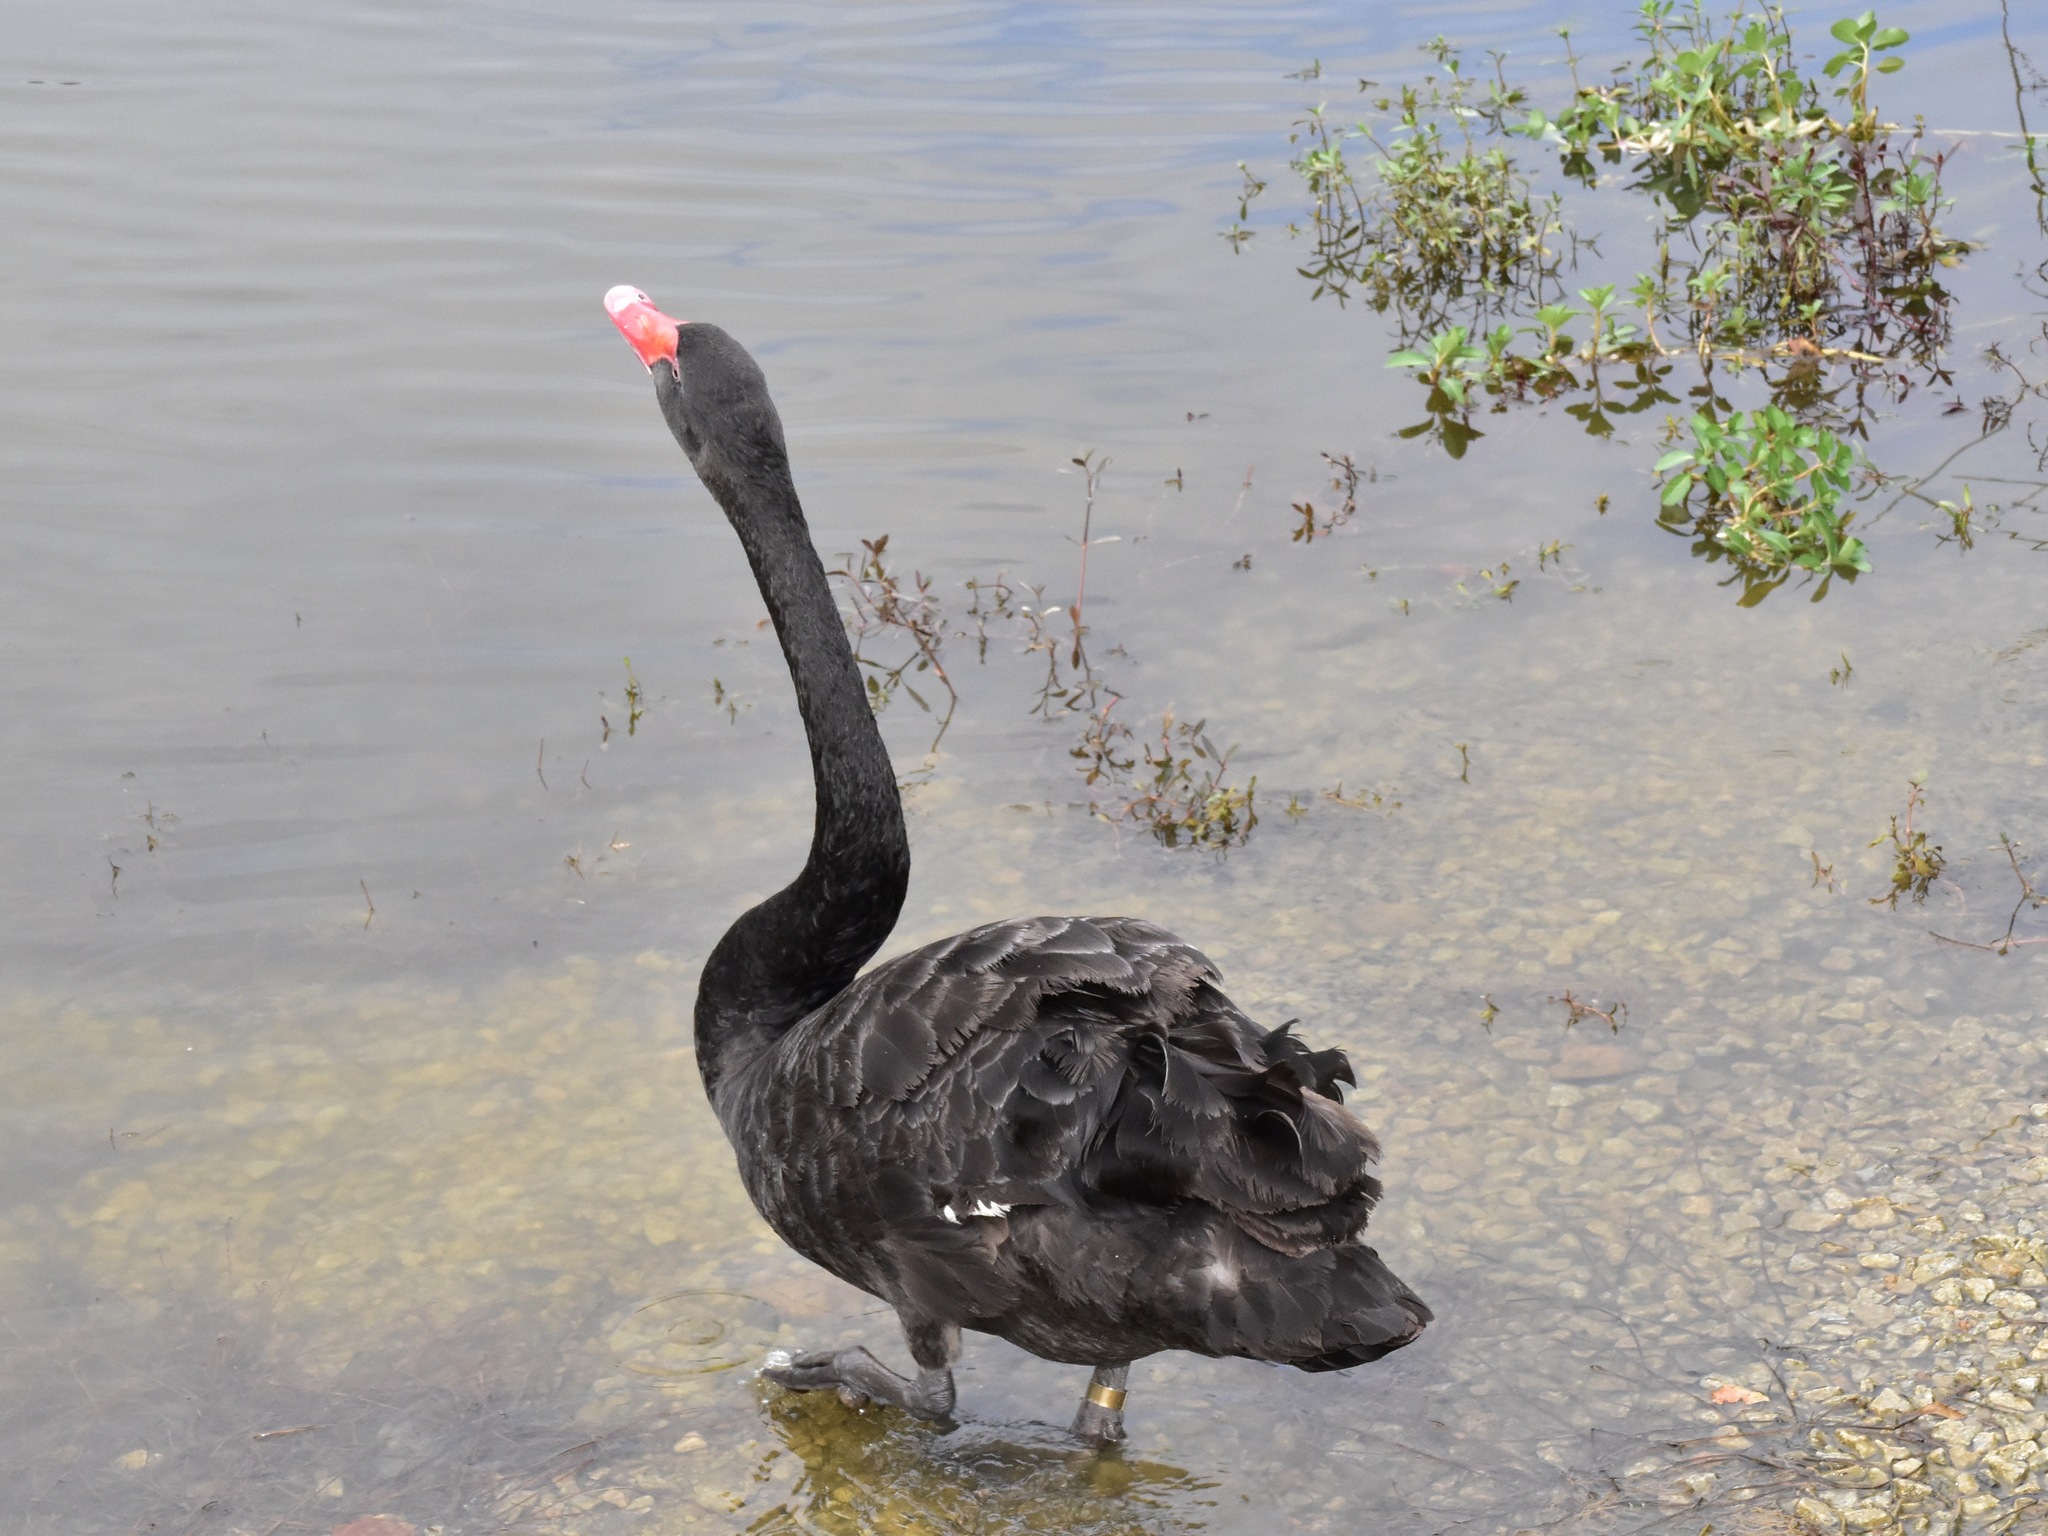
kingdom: Animalia
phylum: Chordata
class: Aves
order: Anseriformes
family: Anatidae
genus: Cygnus
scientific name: Cygnus atratus
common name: Black swan
